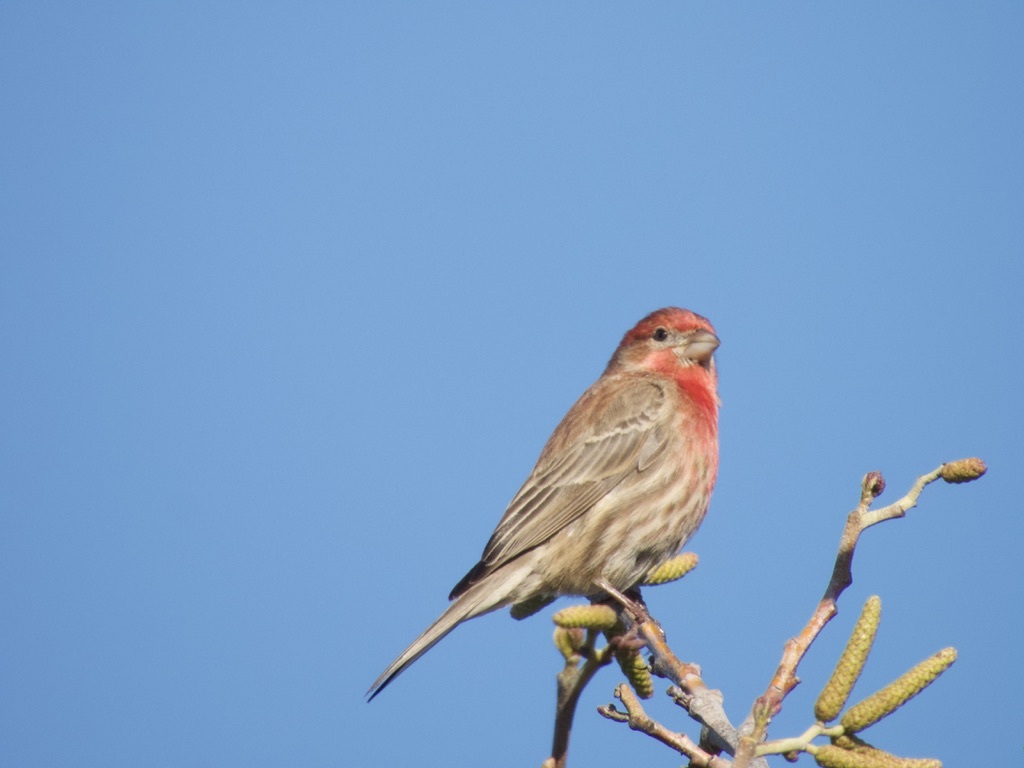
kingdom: Animalia
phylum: Chordata
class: Aves
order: Passeriformes
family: Fringillidae
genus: Haemorhous
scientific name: Haemorhous mexicanus
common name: House finch
